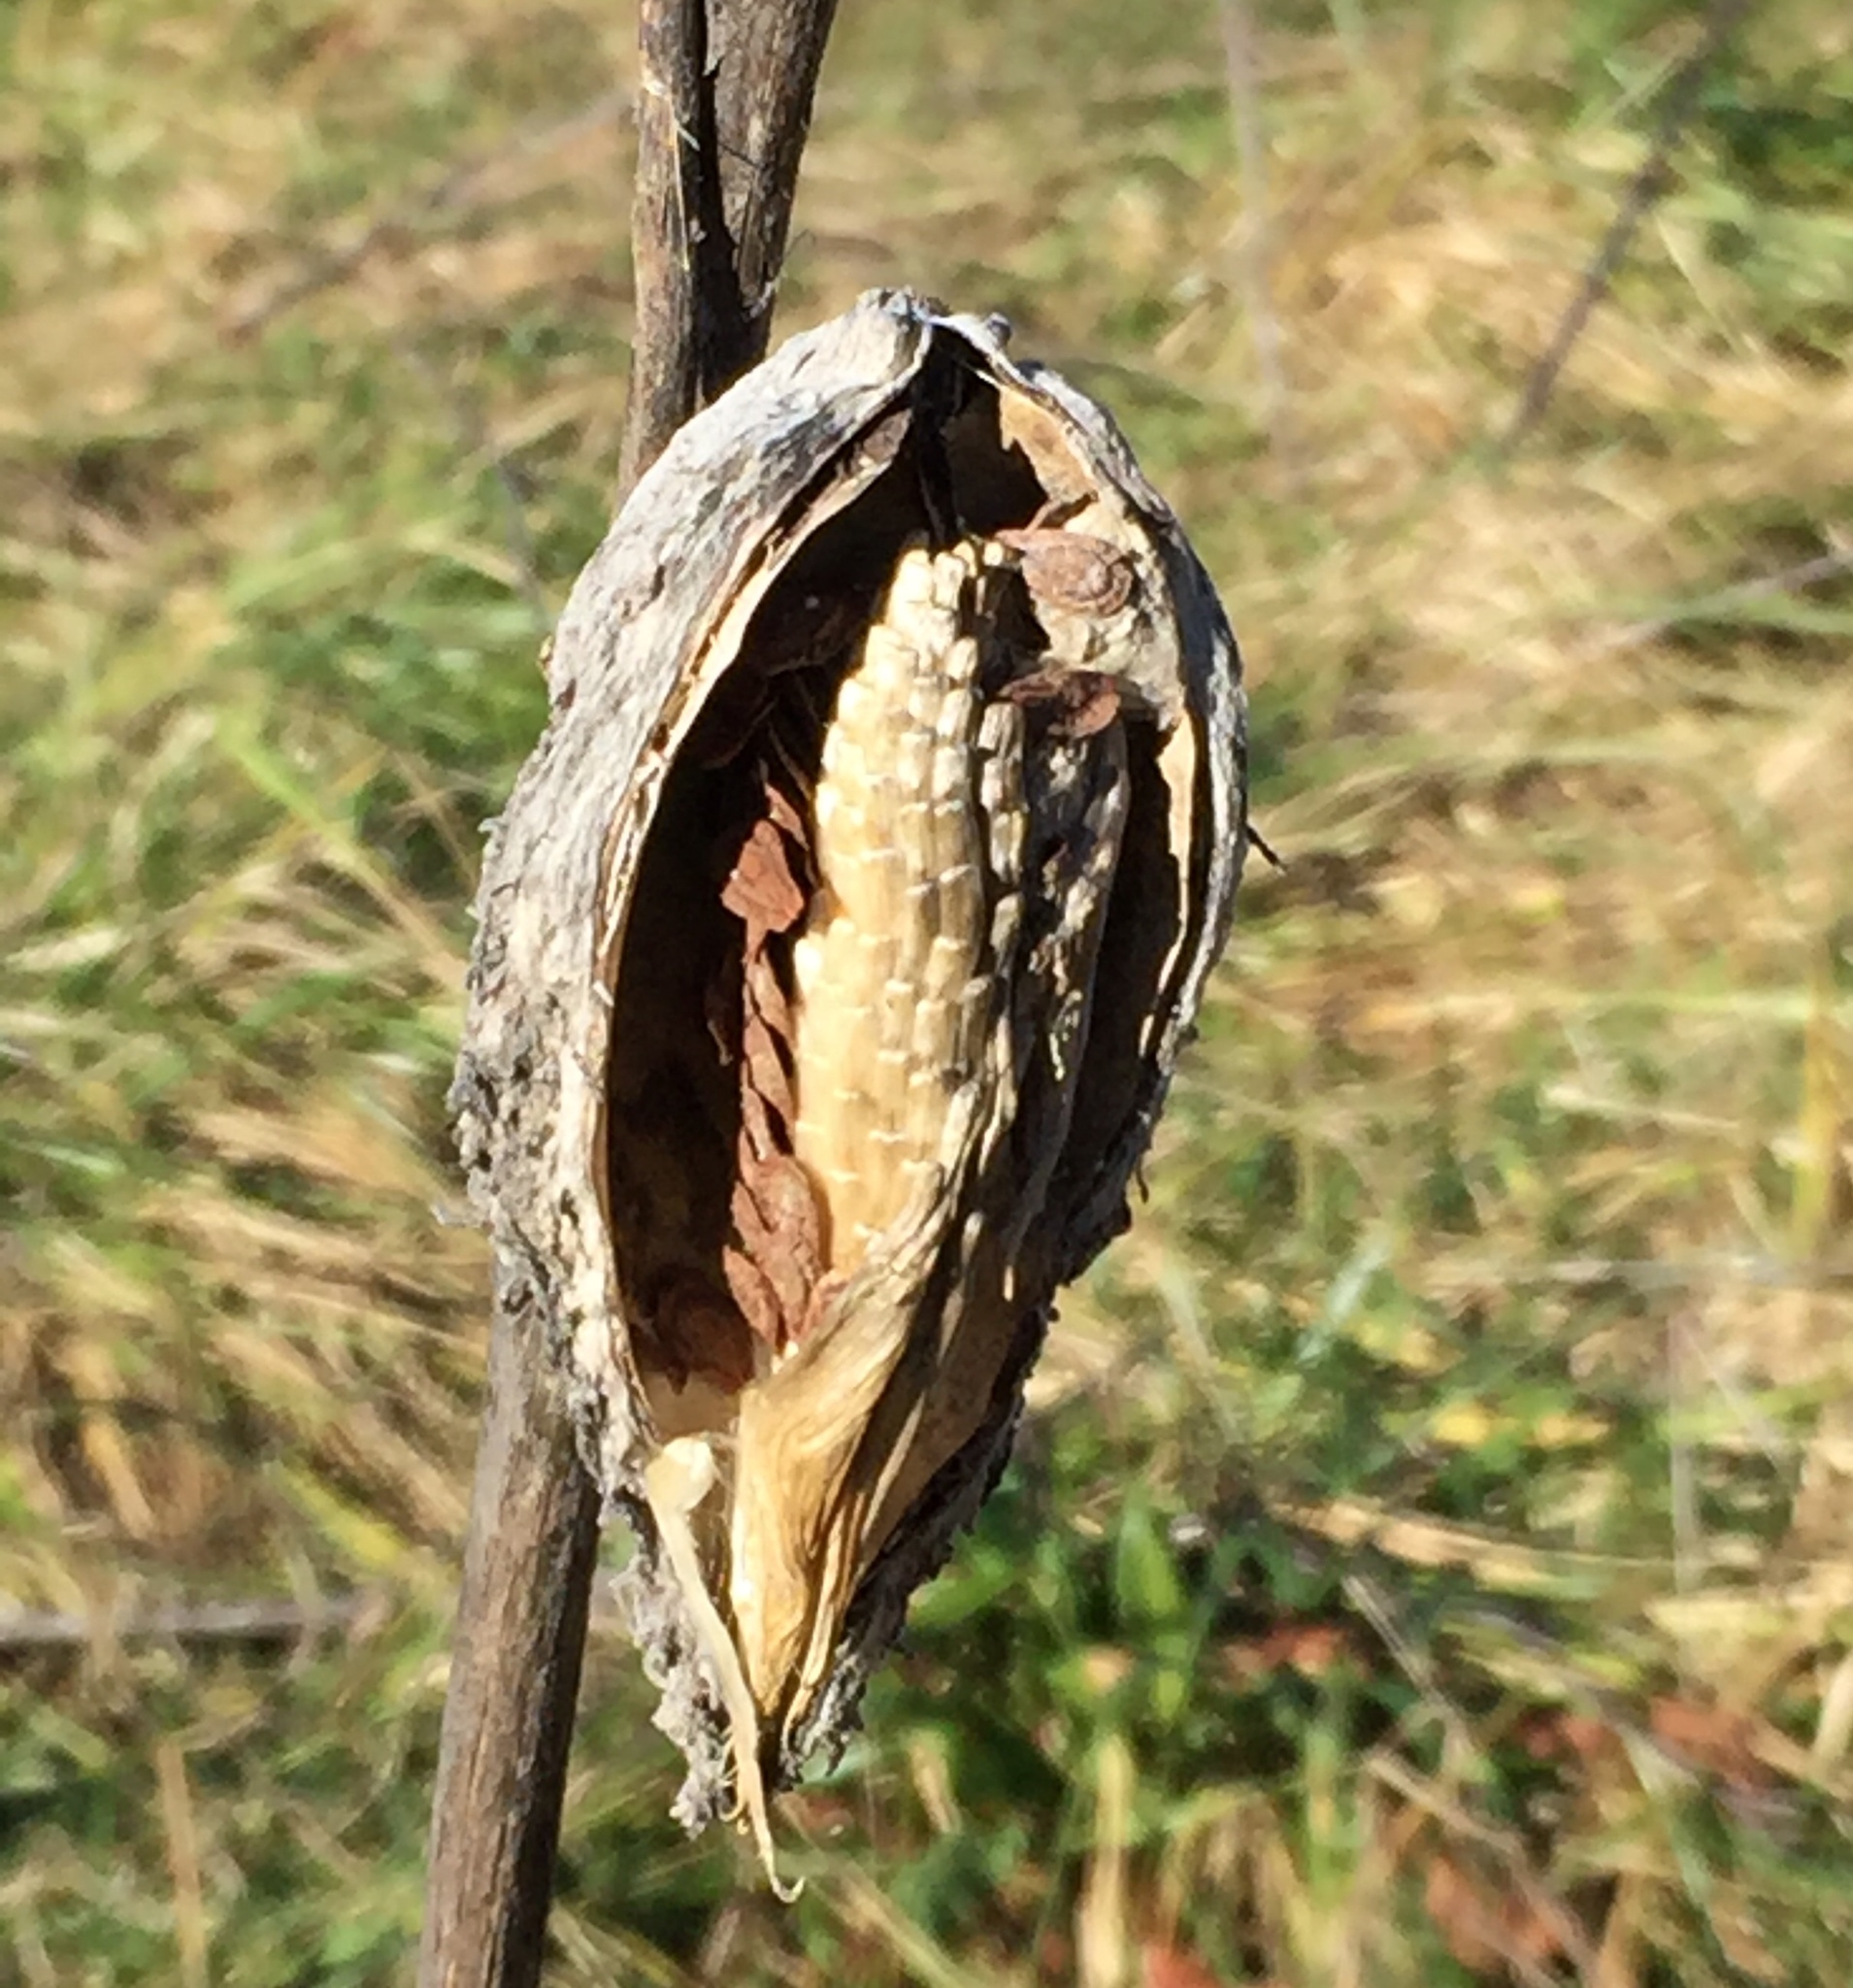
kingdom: Plantae
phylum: Tracheophyta
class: Magnoliopsida
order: Gentianales
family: Apocynaceae
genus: Asclepias
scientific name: Asclepias syriaca
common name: Common milkweed
